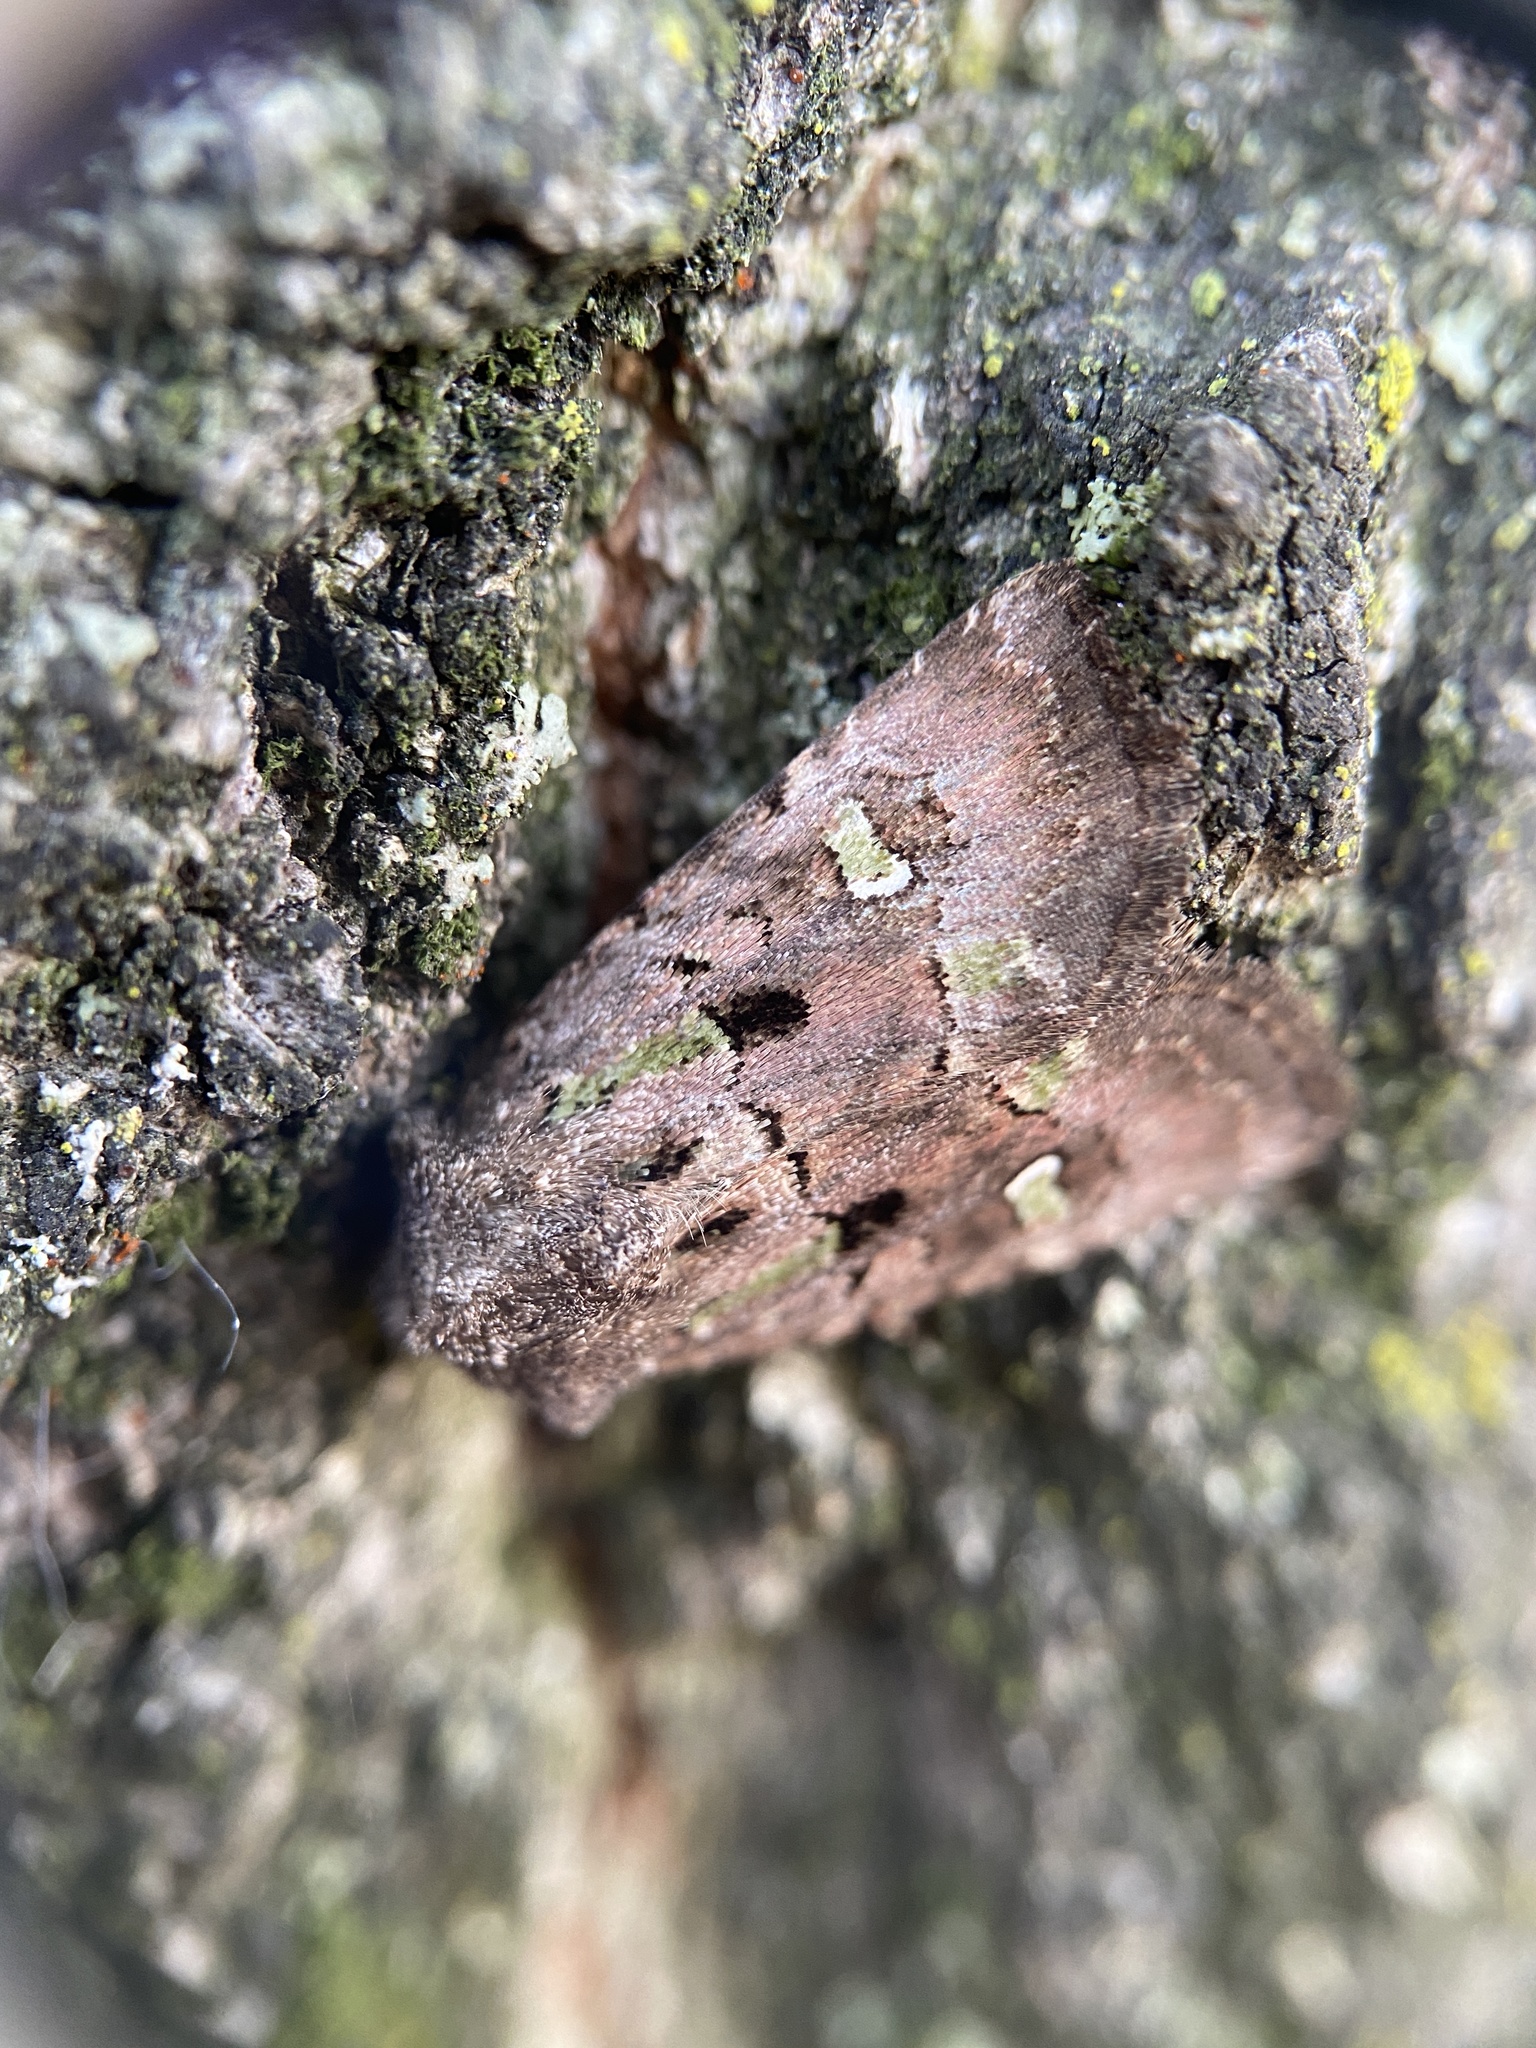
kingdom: Animalia
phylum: Arthropoda
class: Insecta
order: Lepidoptera
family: Noctuidae
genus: Lacinipolia
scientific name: Lacinipolia renigera
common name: Kidney-spotted minor
